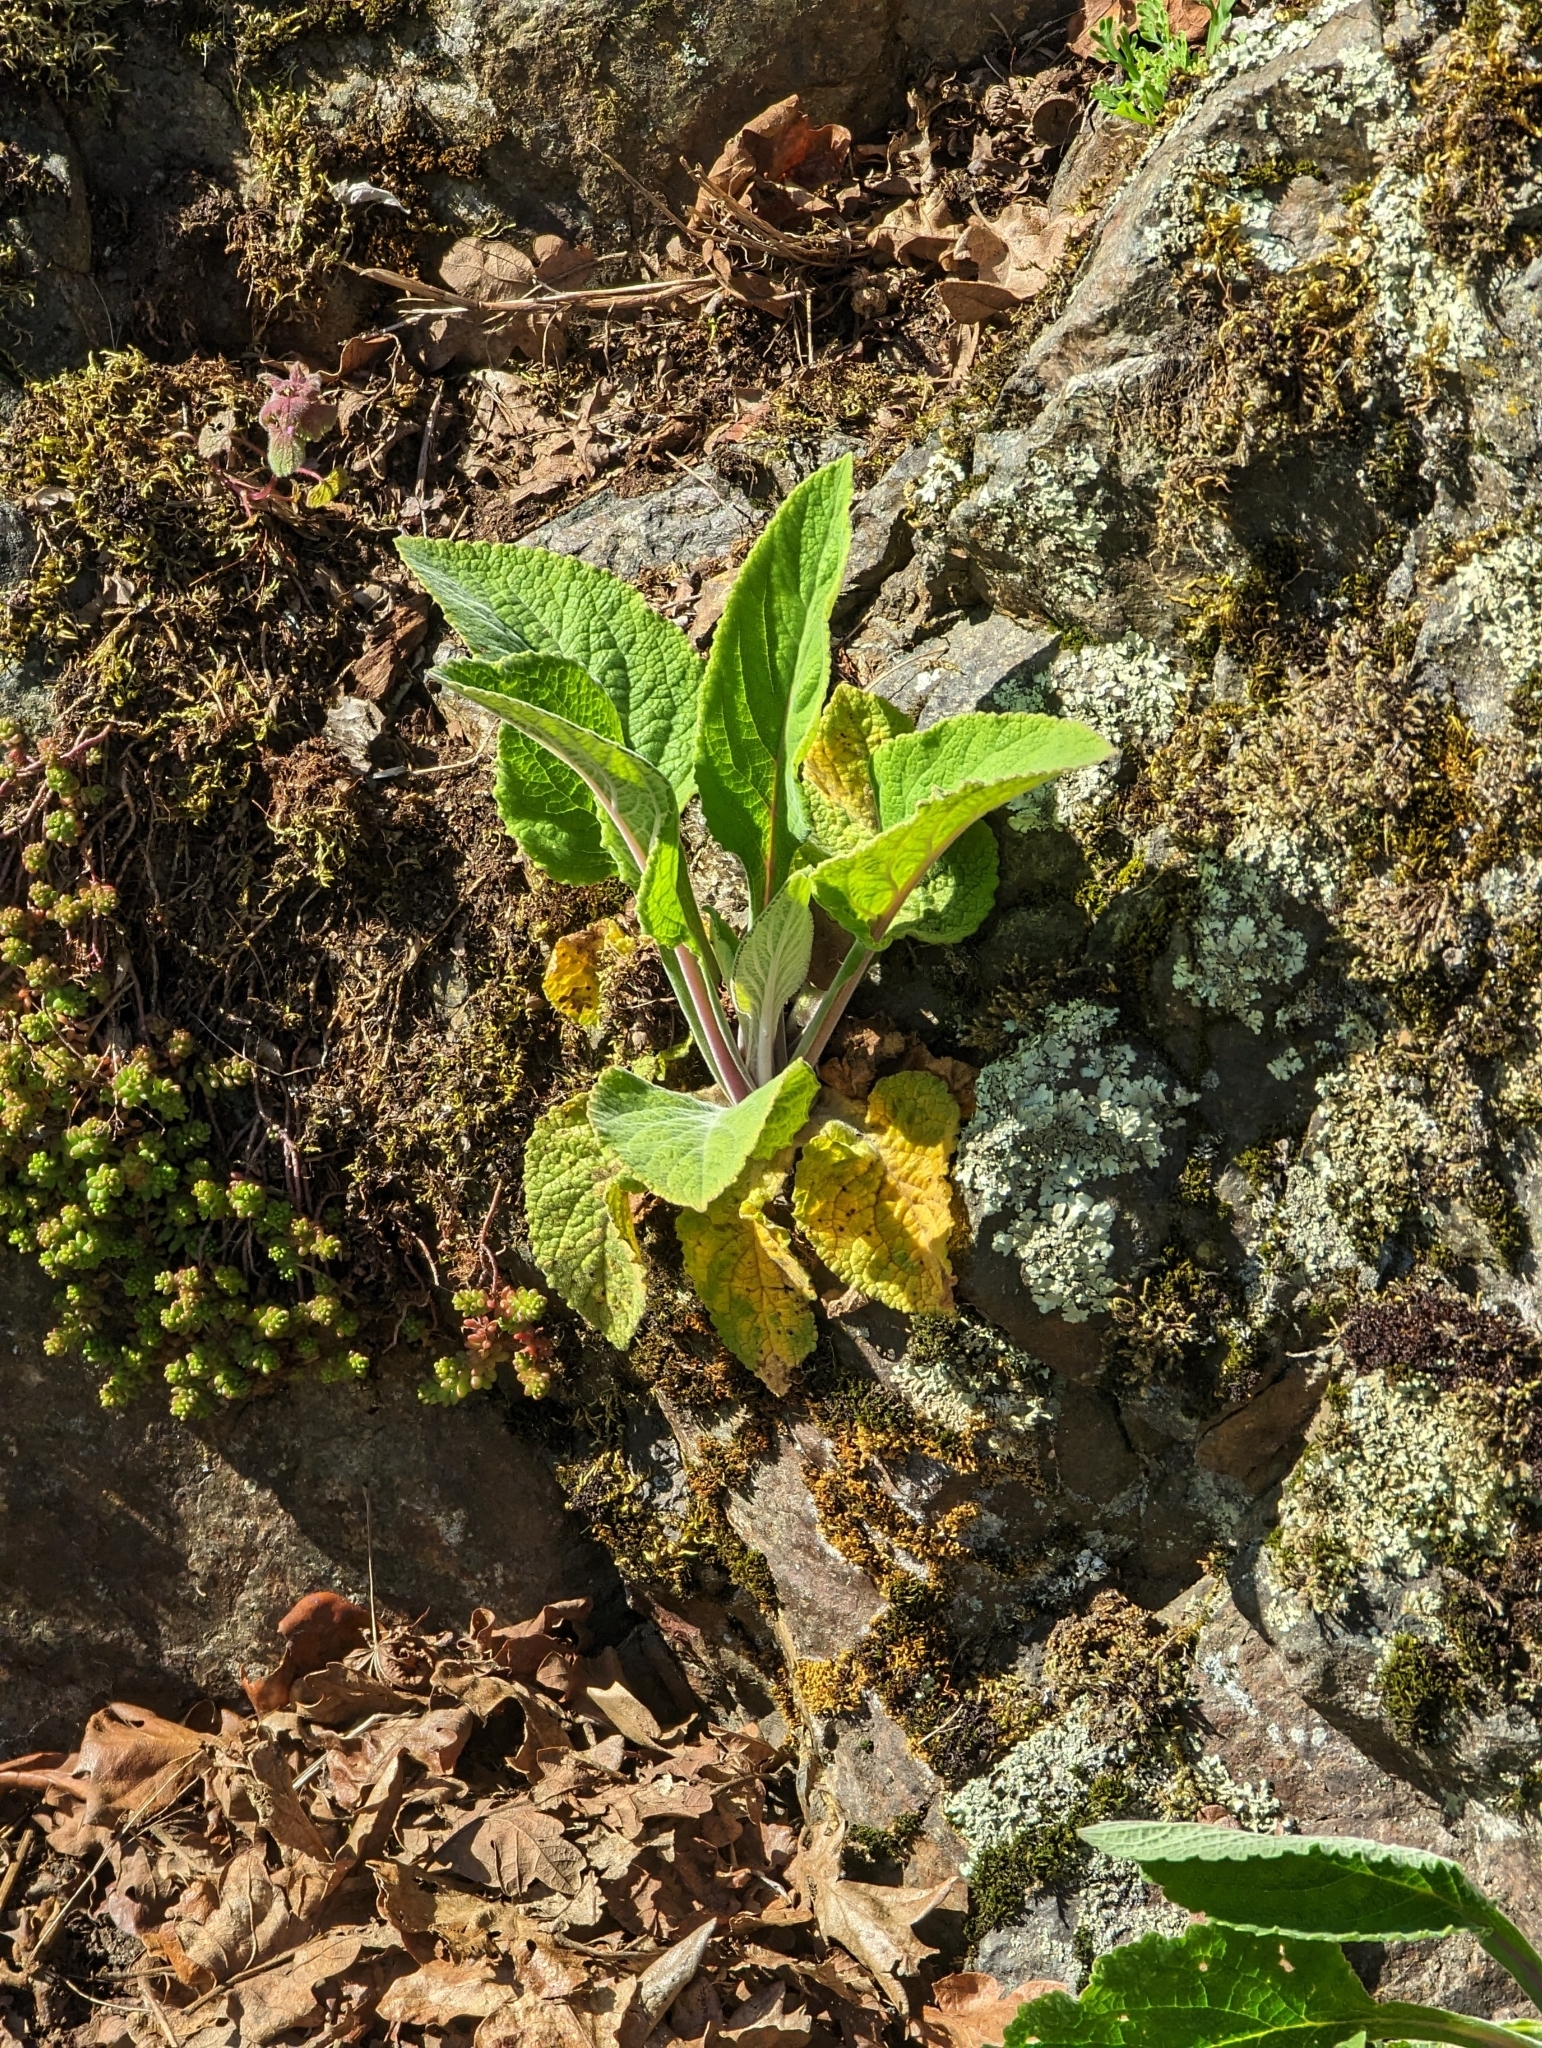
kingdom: Plantae
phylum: Tracheophyta
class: Magnoliopsida
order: Lamiales
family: Plantaginaceae
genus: Digitalis
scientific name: Digitalis purpurea
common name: Foxglove
